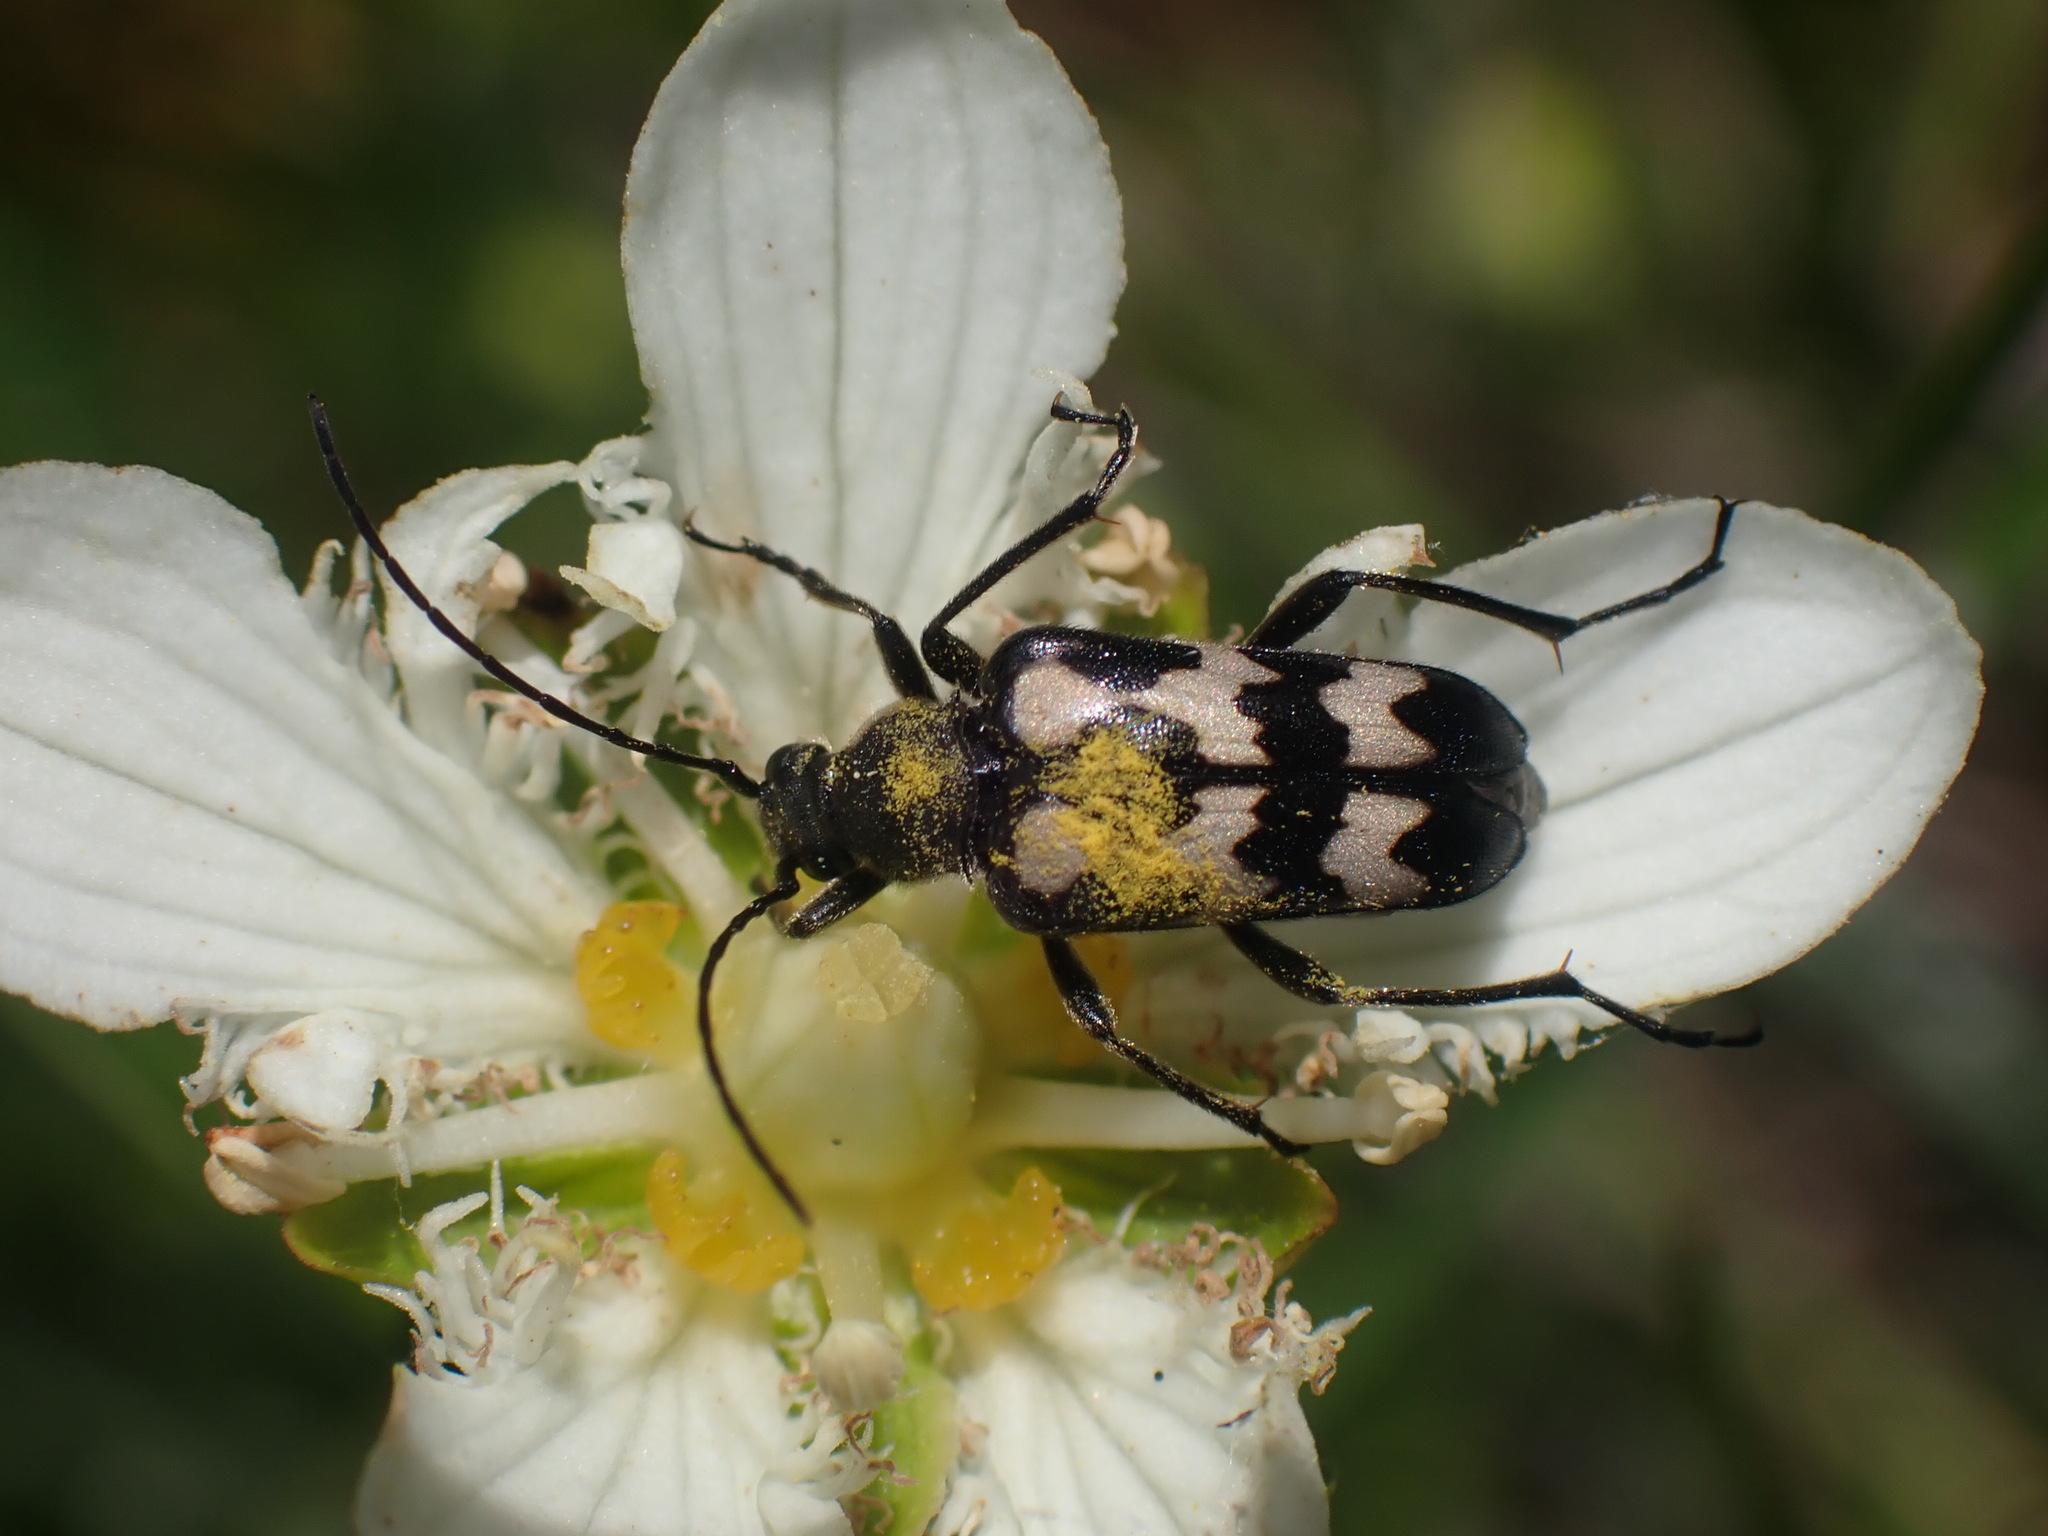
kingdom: Animalia
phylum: Arthropoda
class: Insecta
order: Coleoptera
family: Cerambycidae
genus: Judolia
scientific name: Judolia montivagans
